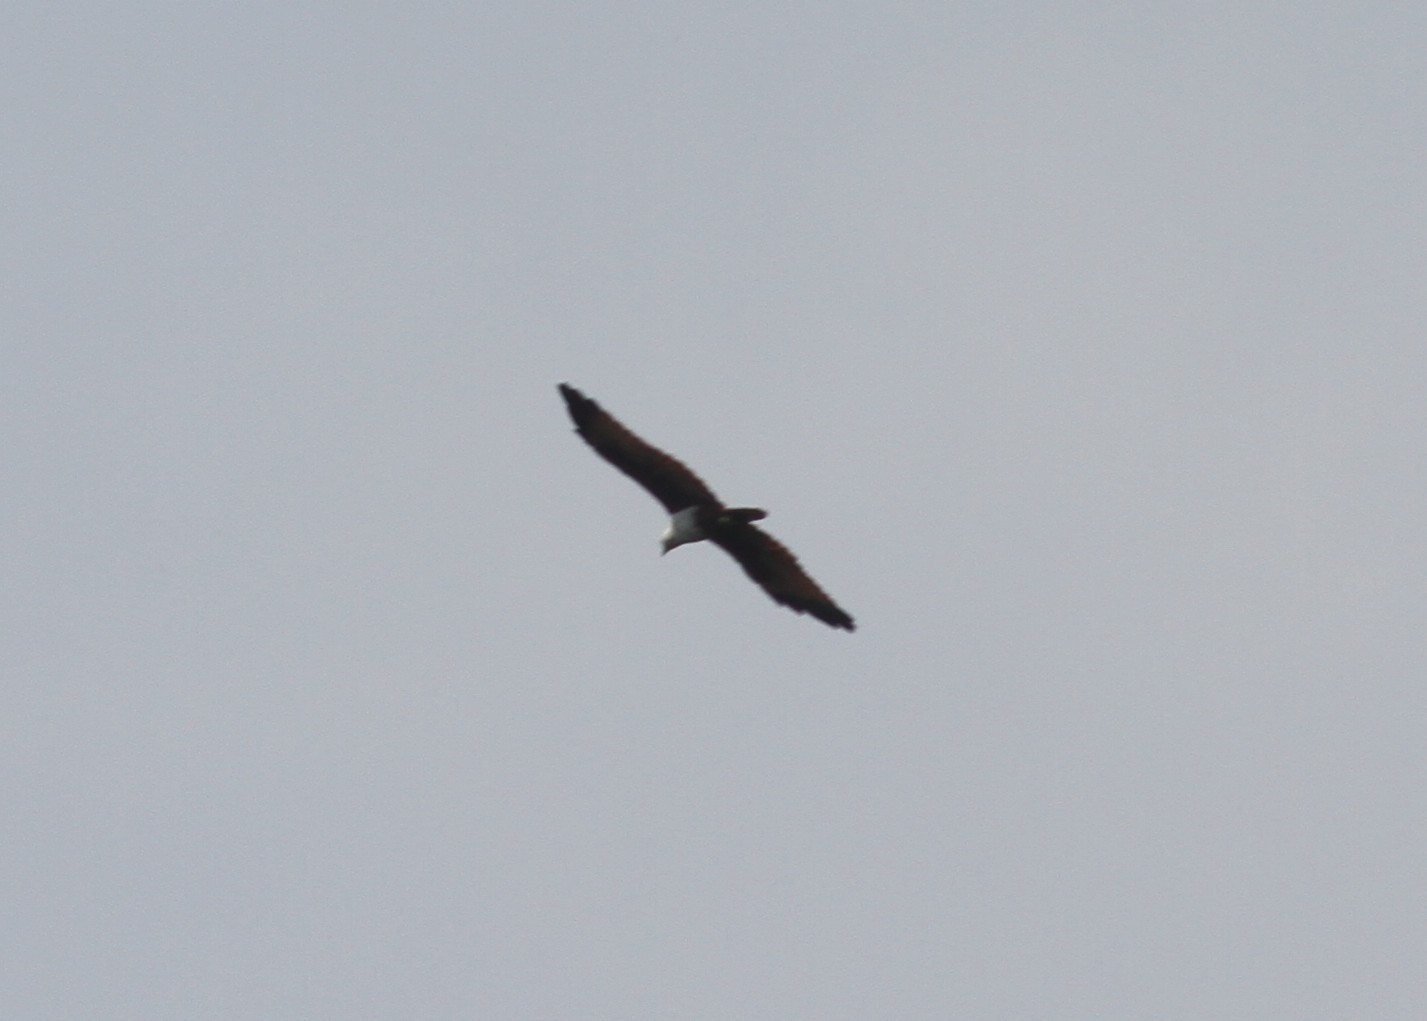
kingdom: Animalia
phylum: Chordata
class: Aves
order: Accipitriformes
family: Accipitridae
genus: Haliastur
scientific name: Haliastur indus
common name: Brahminy kite
